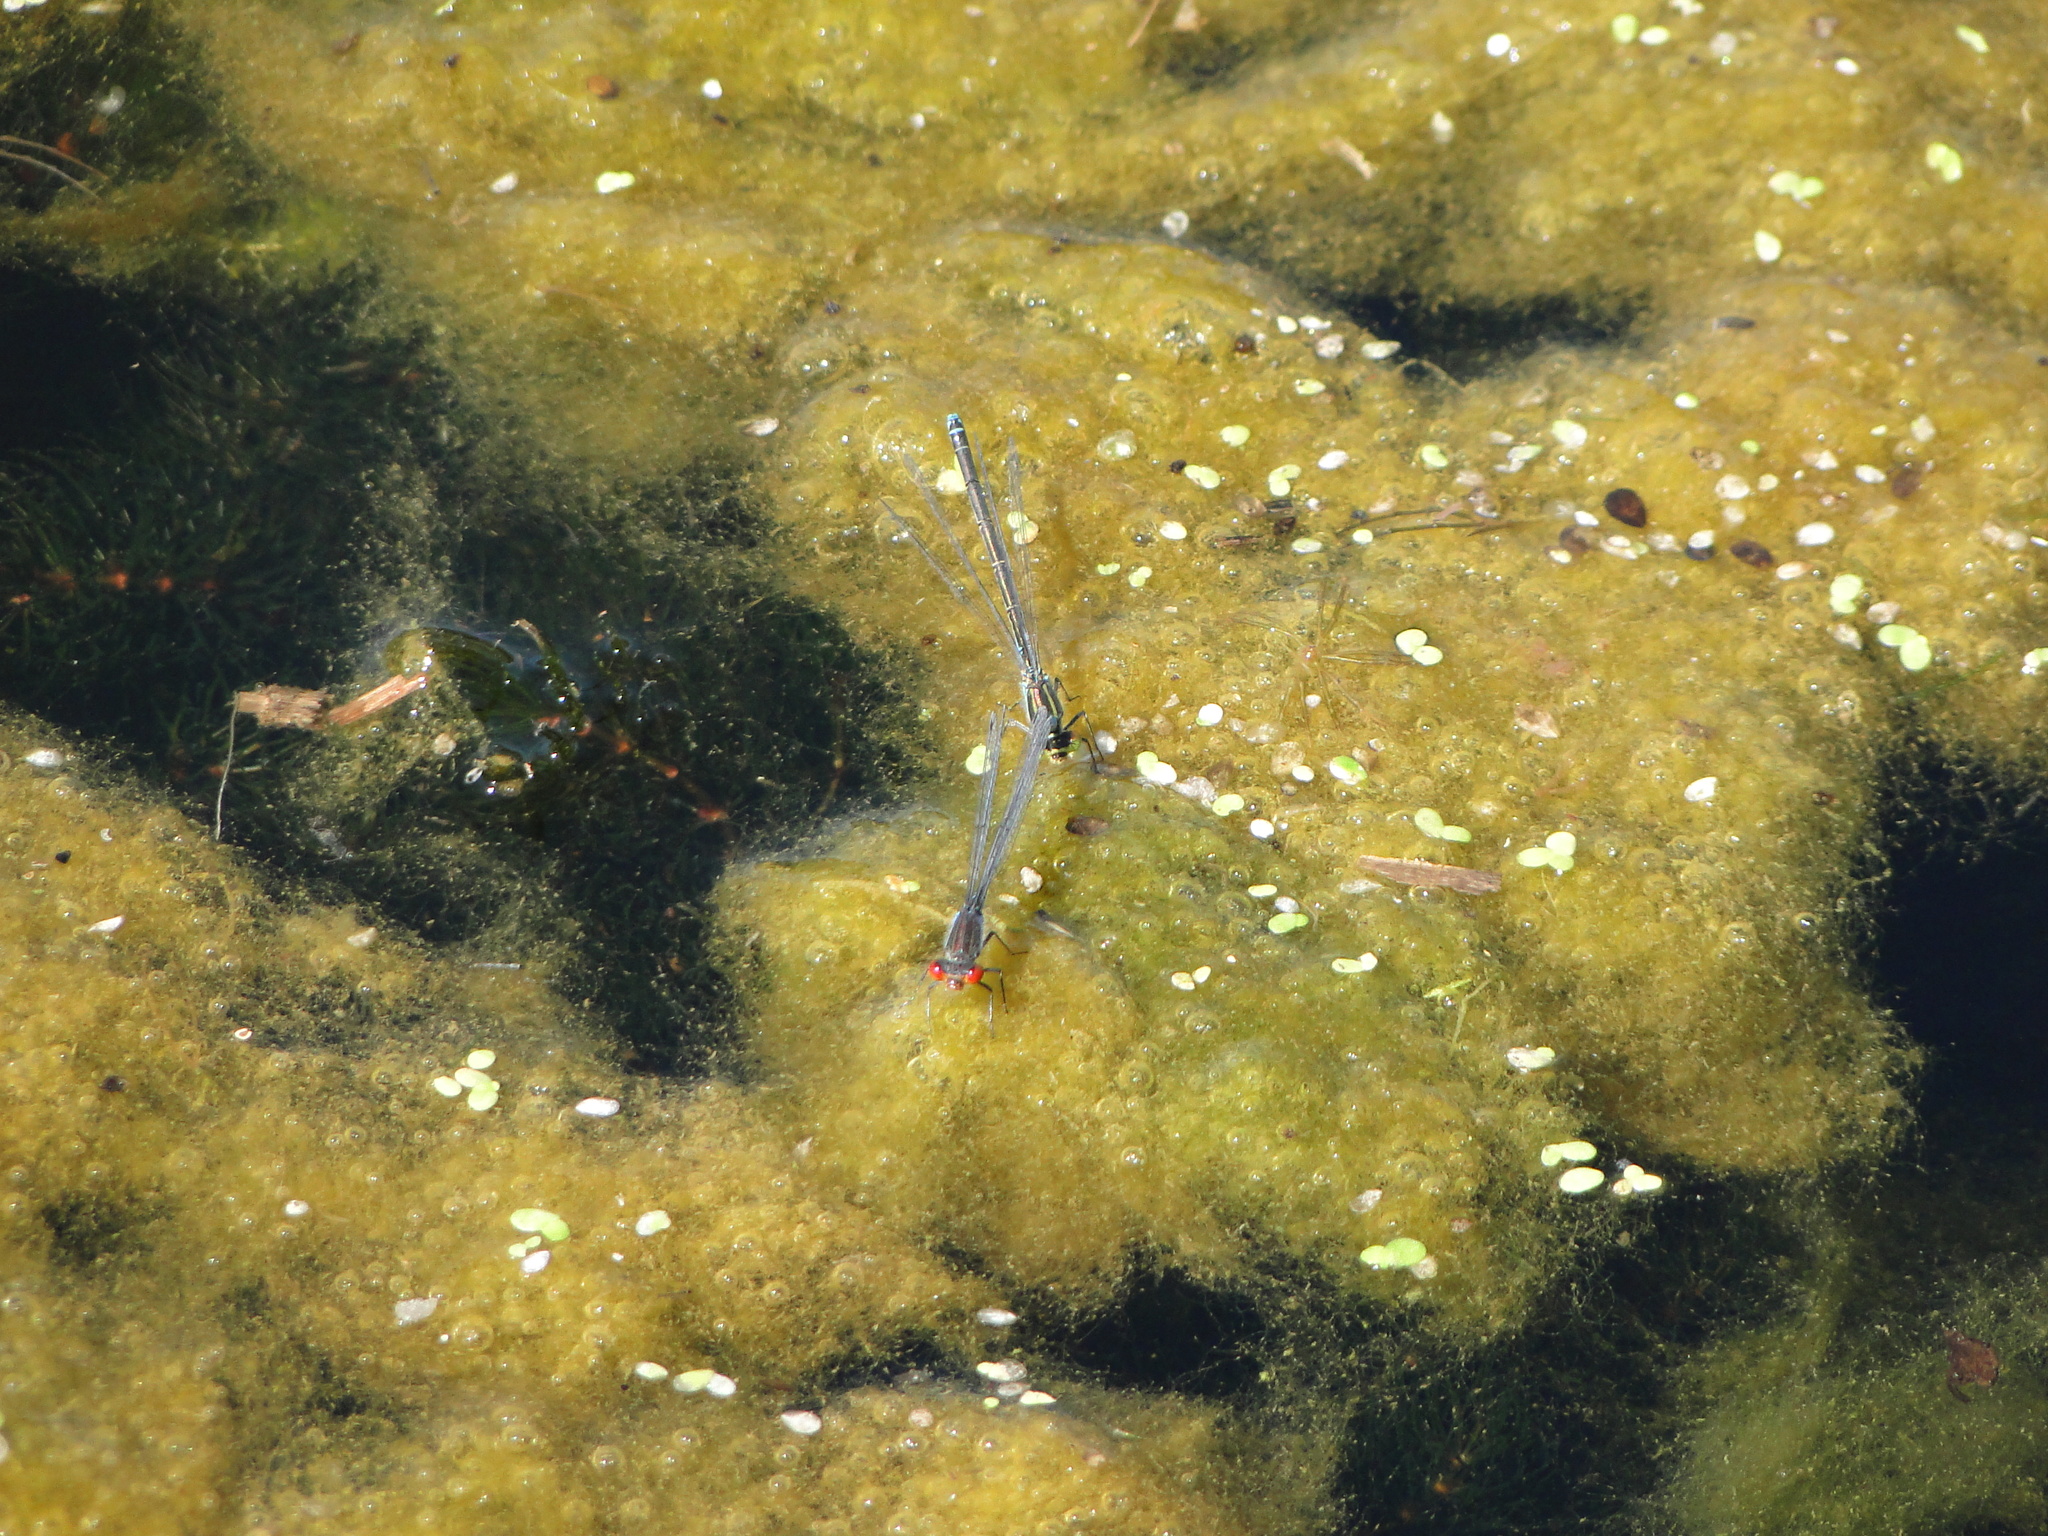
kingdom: Animalia
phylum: Arthropoda
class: Insecta
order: Odonata
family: Coenagrionidae
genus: Erythromma
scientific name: Erythromma viridulum
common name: Small red-eyed damselfly
